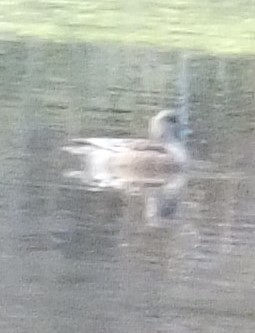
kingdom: Animalia
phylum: Chordata
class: Aves
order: Anseriformes
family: Anatidae
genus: Mareca
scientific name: Mareca americana
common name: American wigeon
